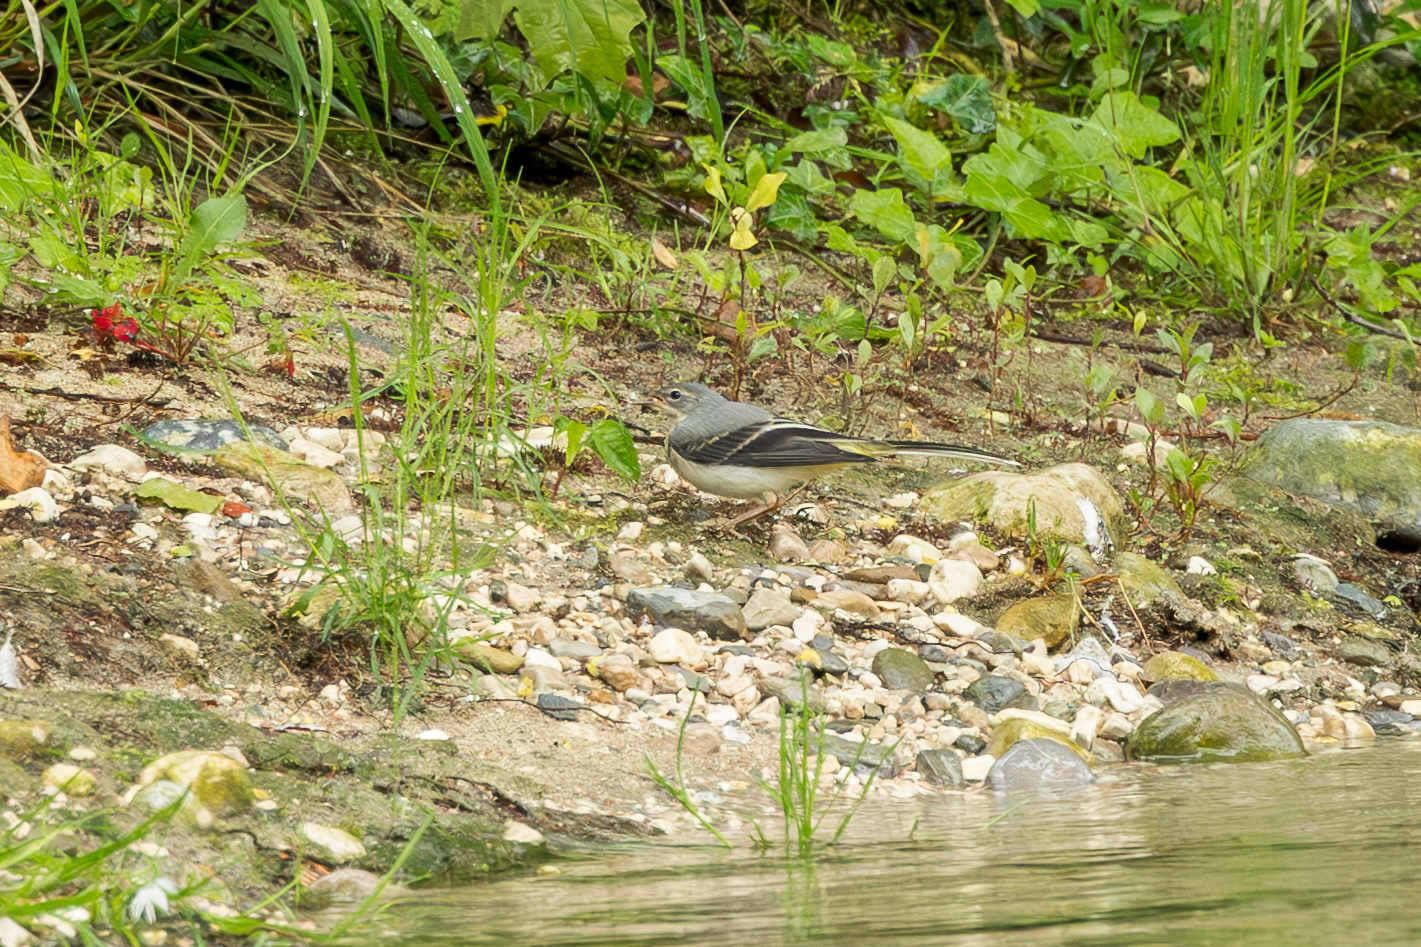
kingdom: Animalia
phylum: Chordata
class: Aves
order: Passeriformes
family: Motacillidae
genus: Motacilla
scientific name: Motacilla cinerea
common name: Grey wagtail
